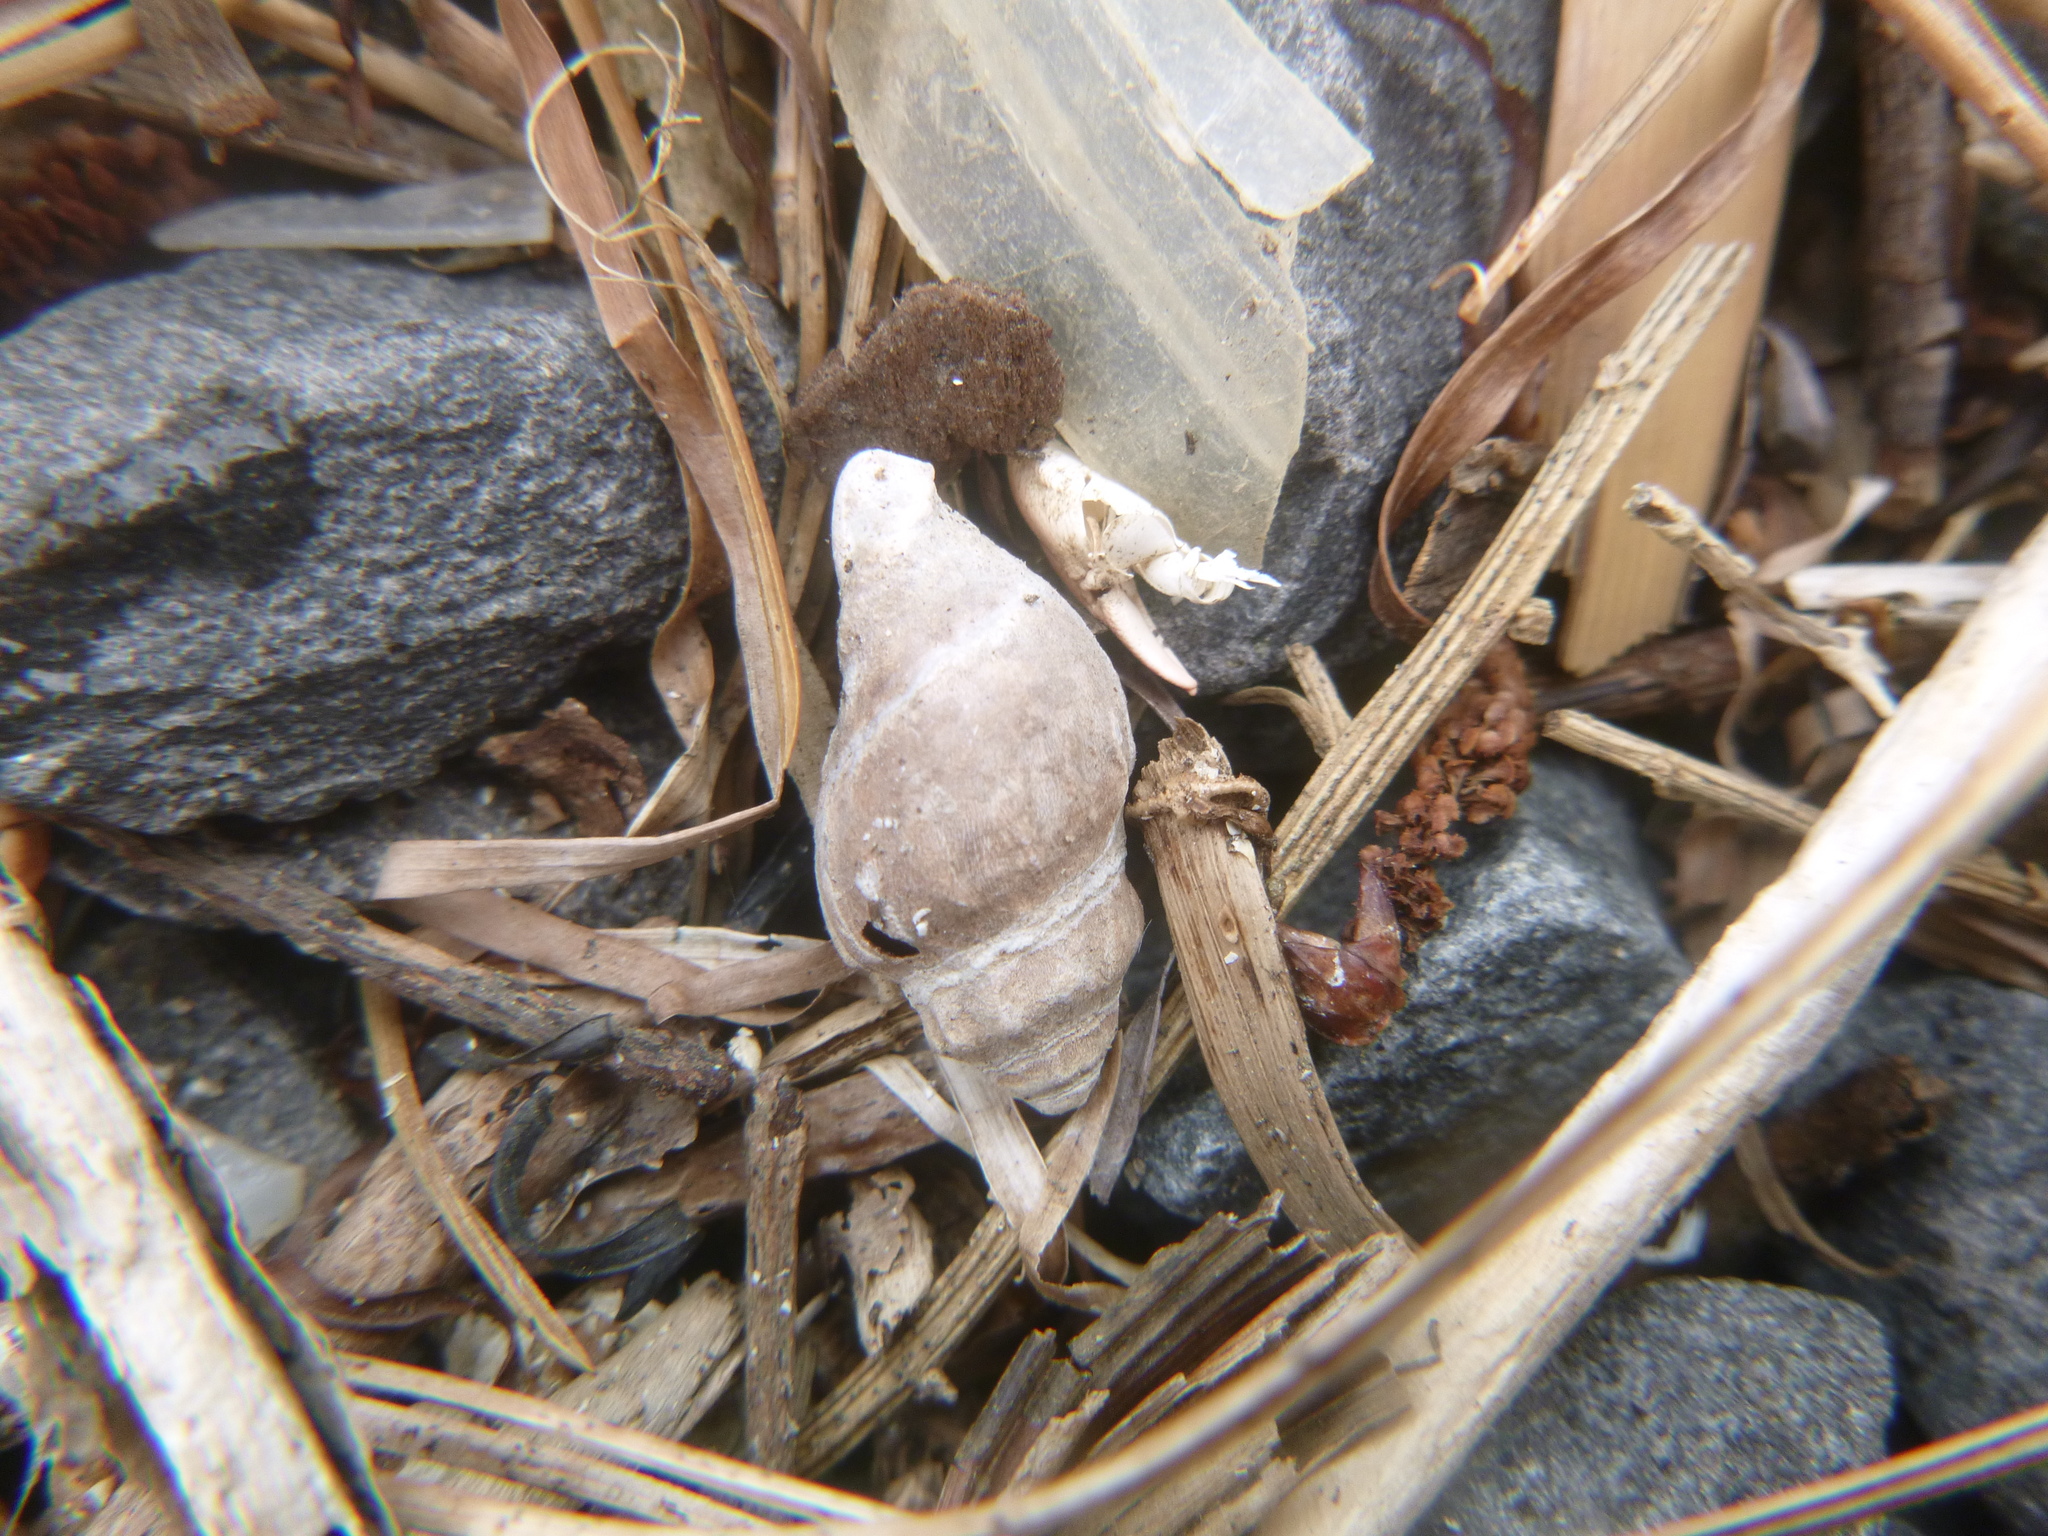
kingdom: Animalia
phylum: Mollusca
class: Gastropoda
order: Neogastropoda
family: Cominellidae
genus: Cominella
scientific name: Cominella glandiformis
